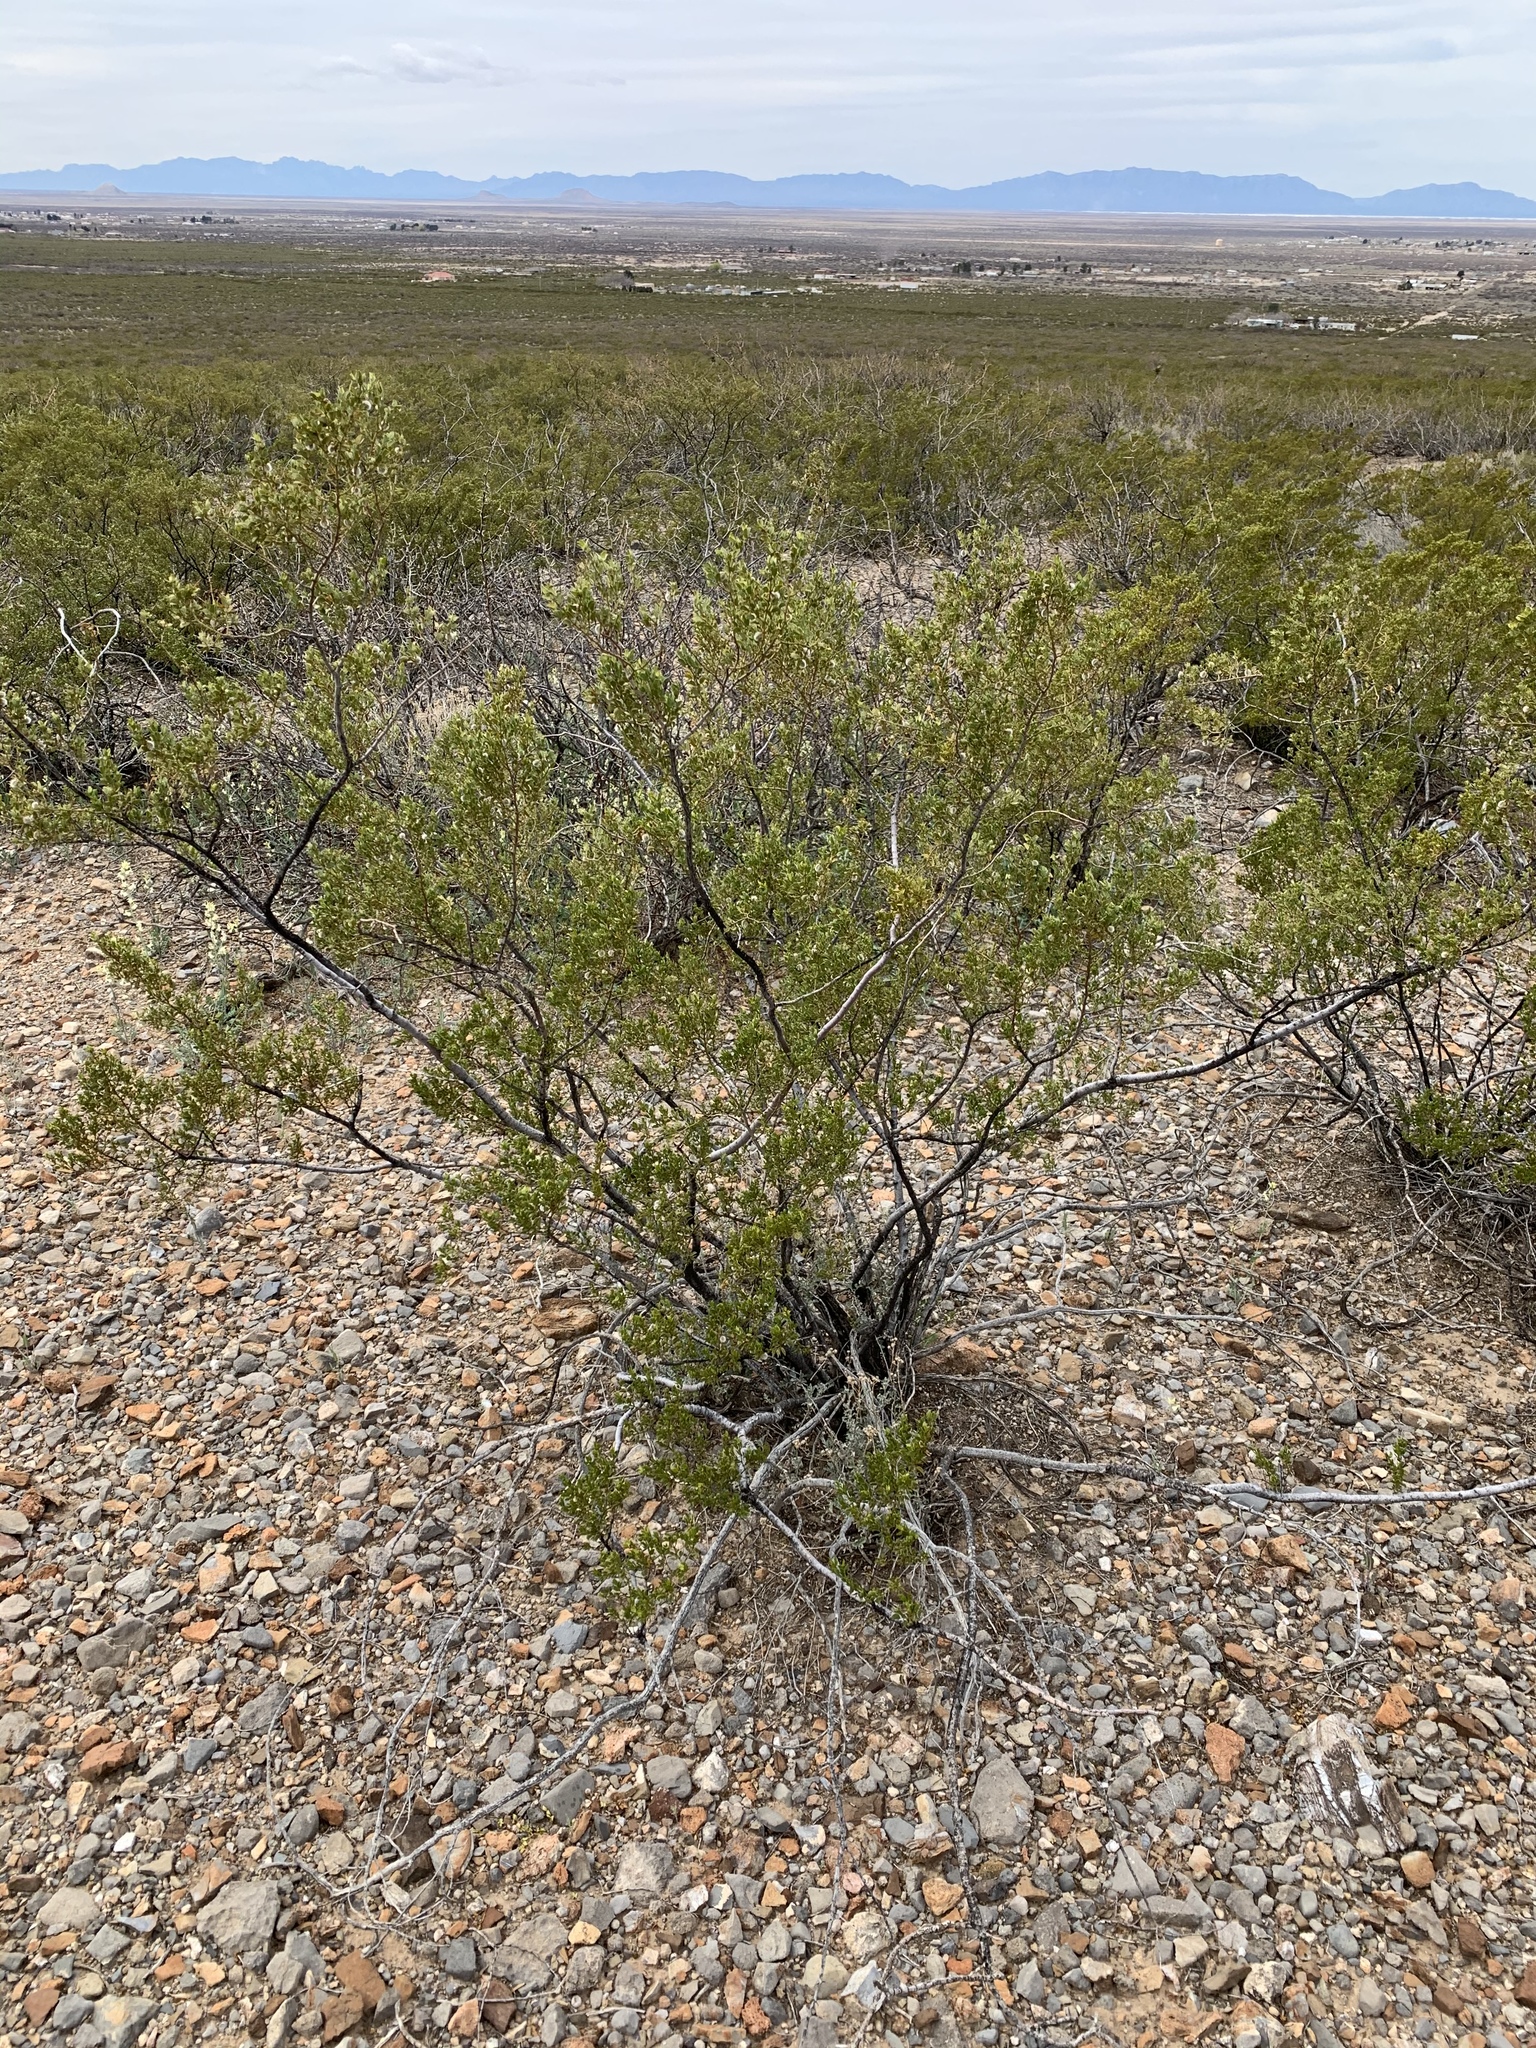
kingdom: Plantae
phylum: Tracheophyta
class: Magnoliopsida
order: Zygophyllales
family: Zygophyllaceae
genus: Larrea
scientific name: Larrea tridentata
